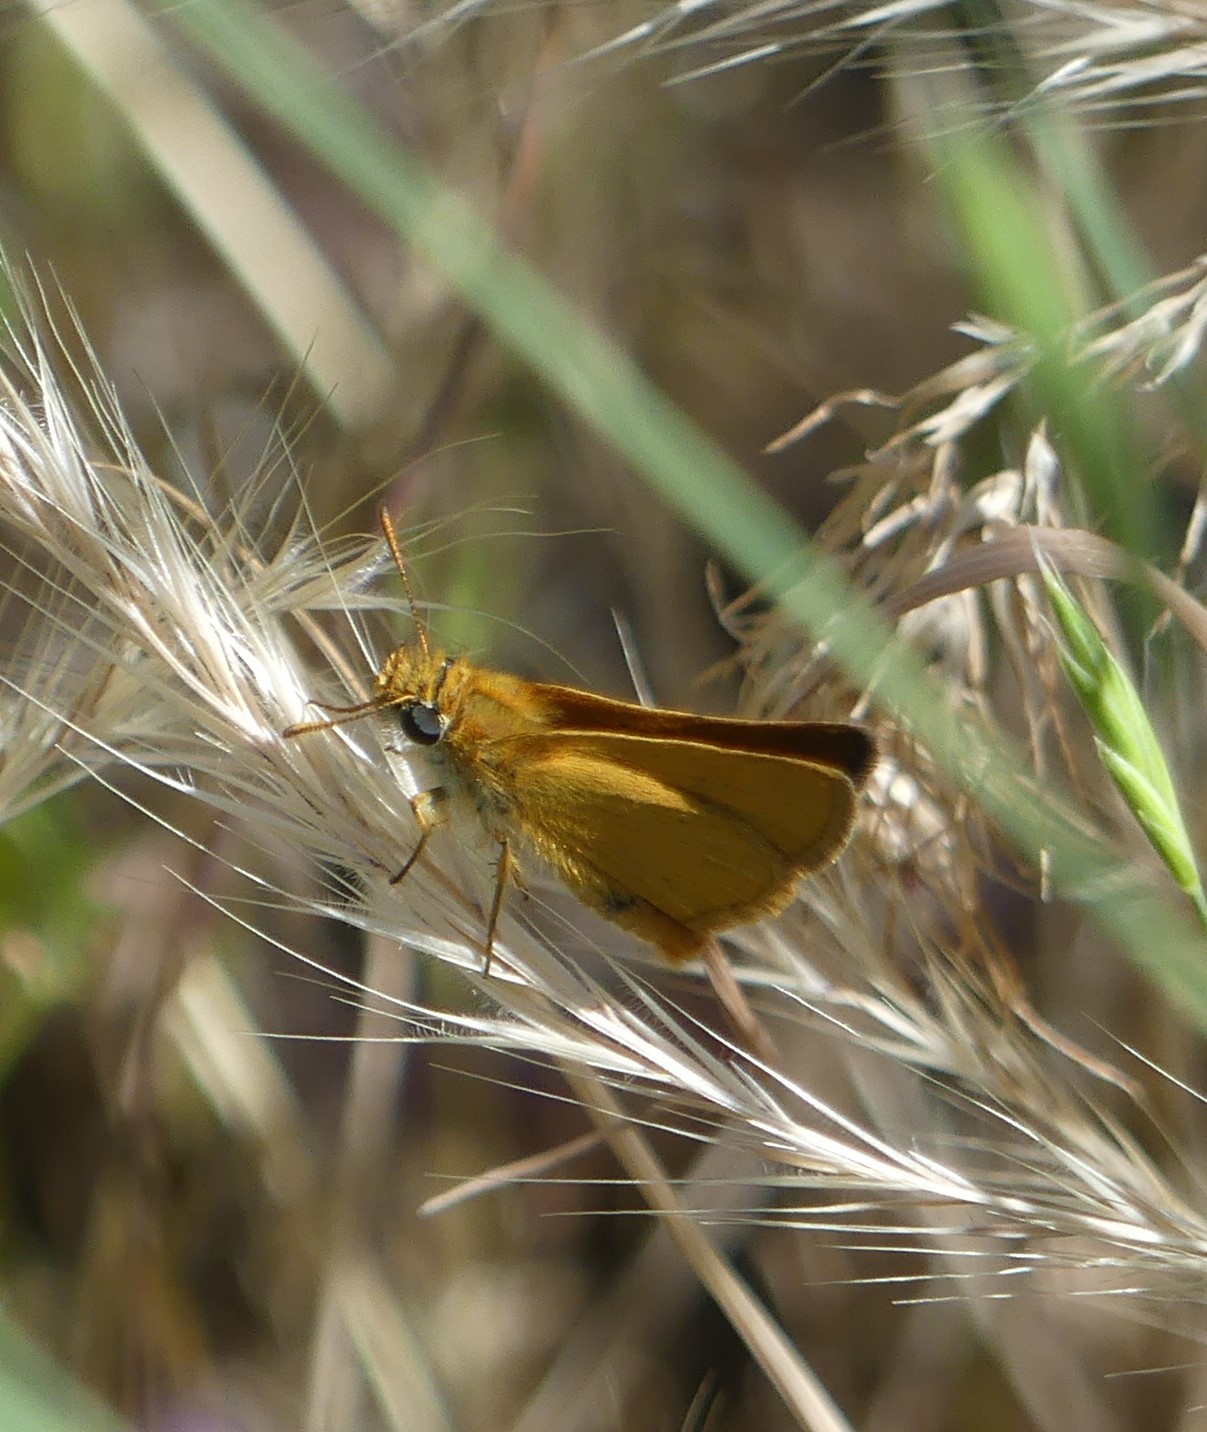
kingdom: Animalia
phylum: Arthropoda
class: Insecta
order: Lepidoptera
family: Hesperiidae
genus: Thymelicus
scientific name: Thymelicus acteon
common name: Lulworth skipper
